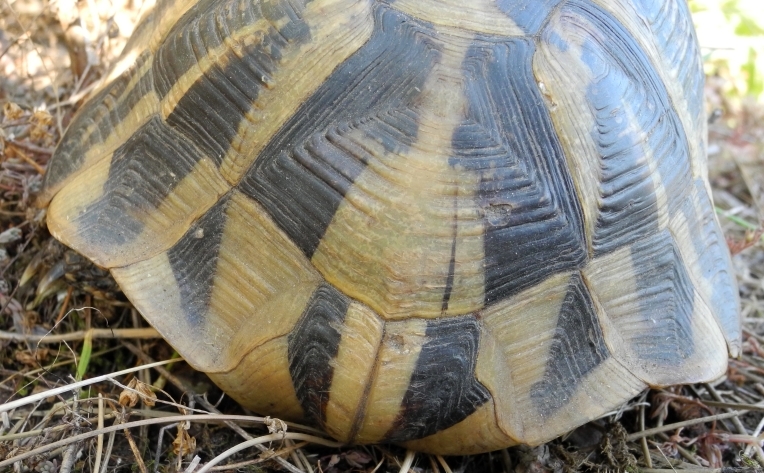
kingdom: Animalia
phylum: Chordata
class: Testudines
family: Testudinidae
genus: Testudo
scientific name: Testudo hermanni
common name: Hermann's tortoise
